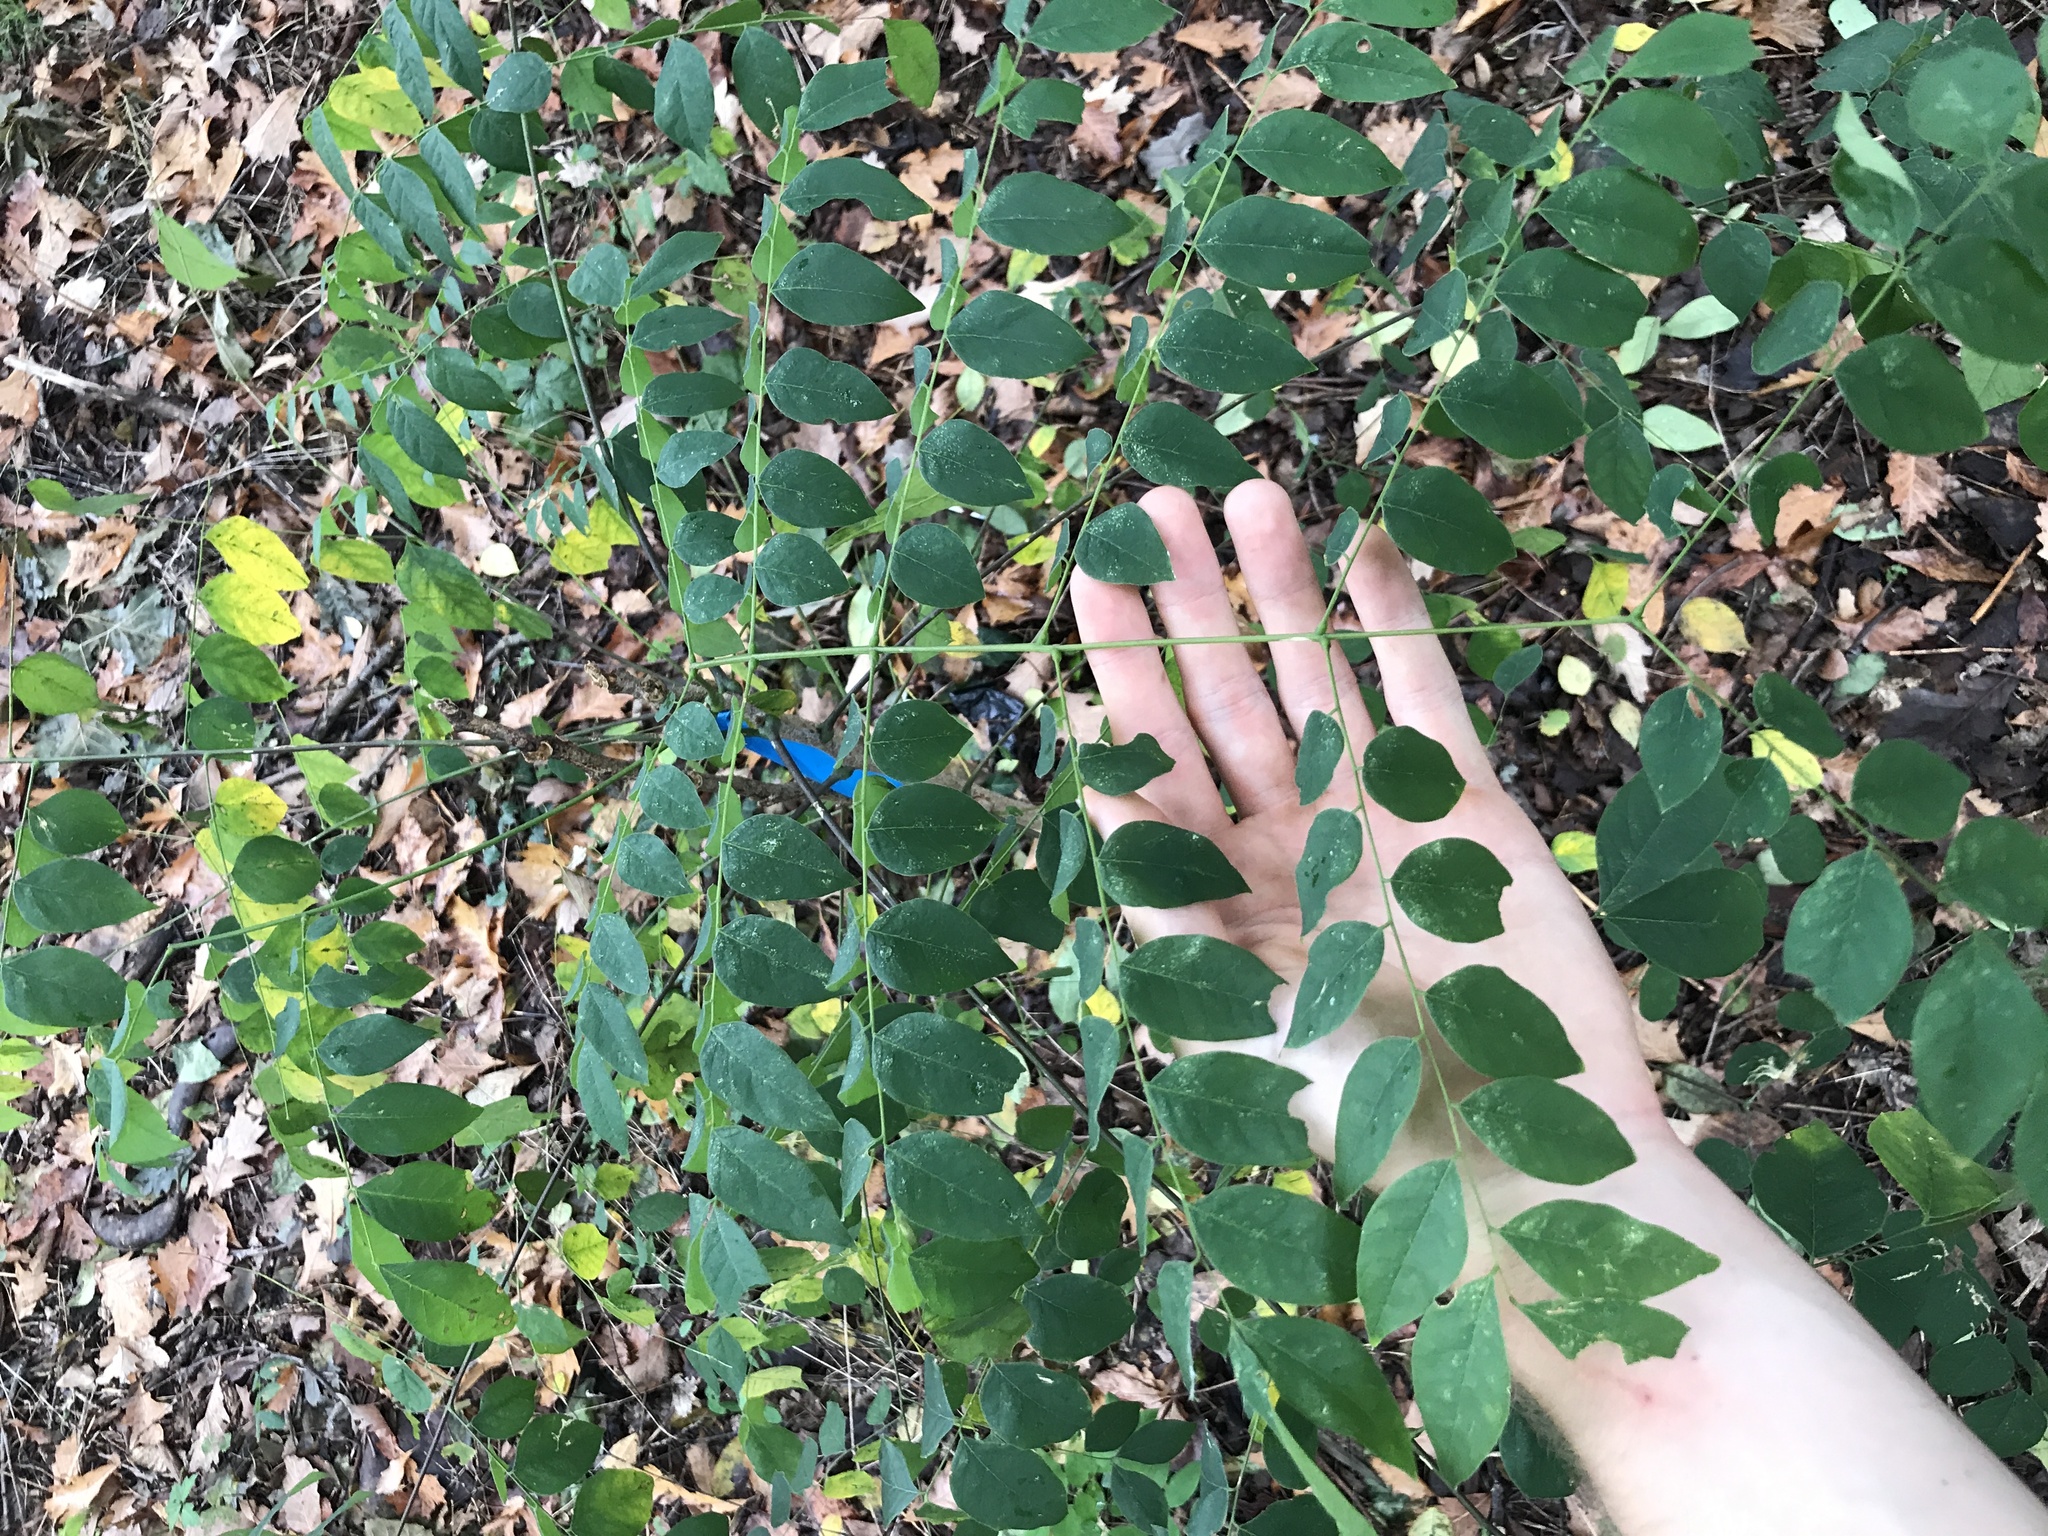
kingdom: Plantae
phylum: Tracheophyta
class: Magnoliopsida
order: Fabales
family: Fabaceae
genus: Gymnocladus
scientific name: Gymnocladus dioicus
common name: Kentucky coffee-tree
